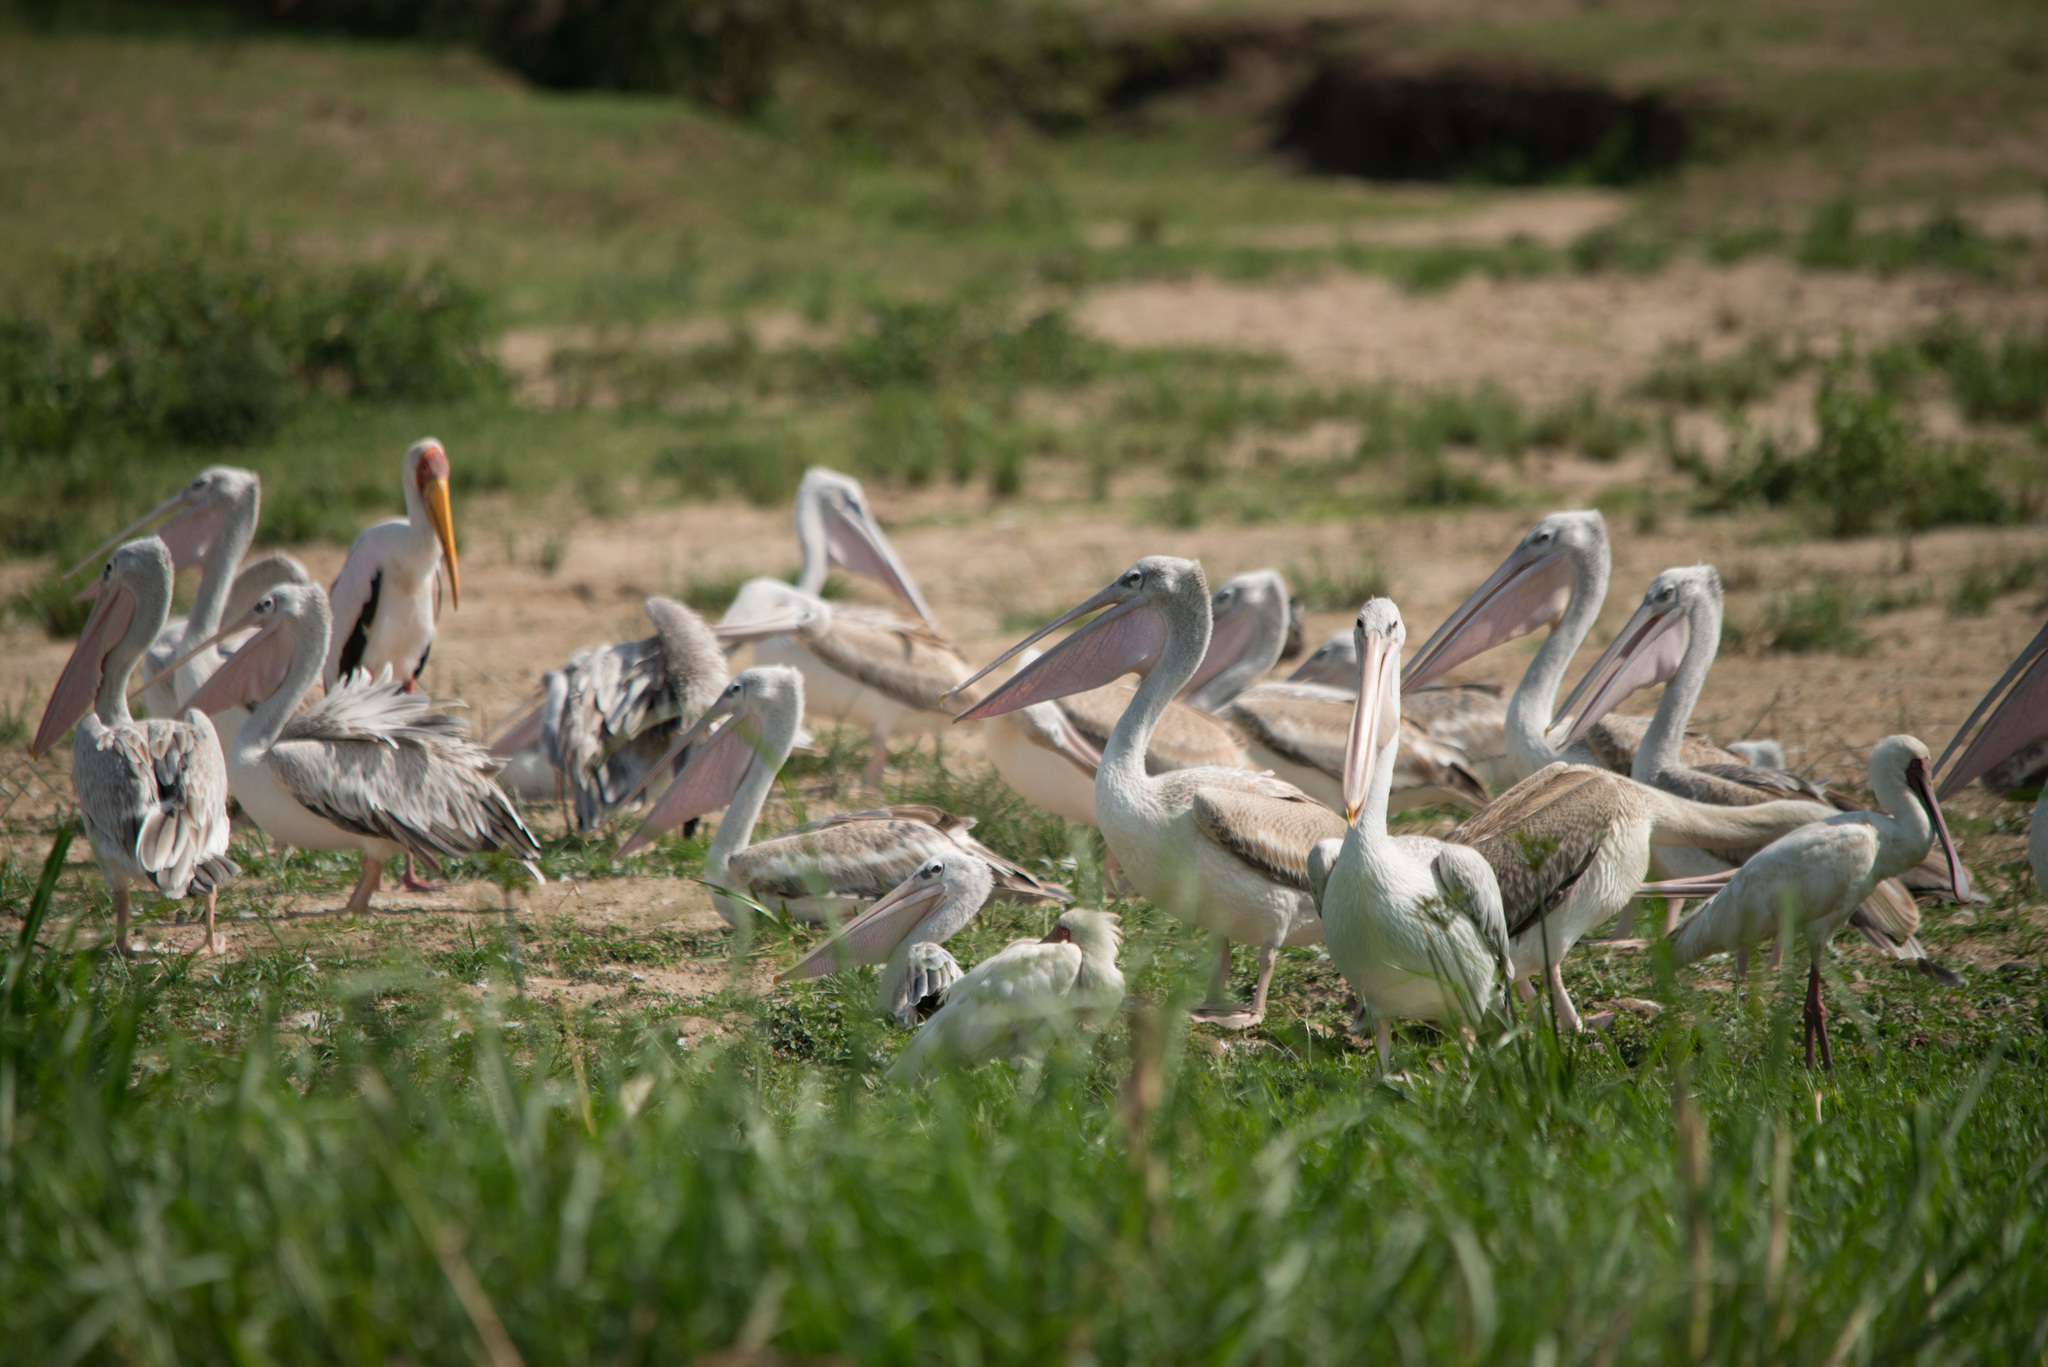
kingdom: Animalia
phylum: Chordata
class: Aves
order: Pelecaniformes
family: Pelecanidae
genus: Pelecanus
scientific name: Pelecanus rufescens
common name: Pink-backed pelican
